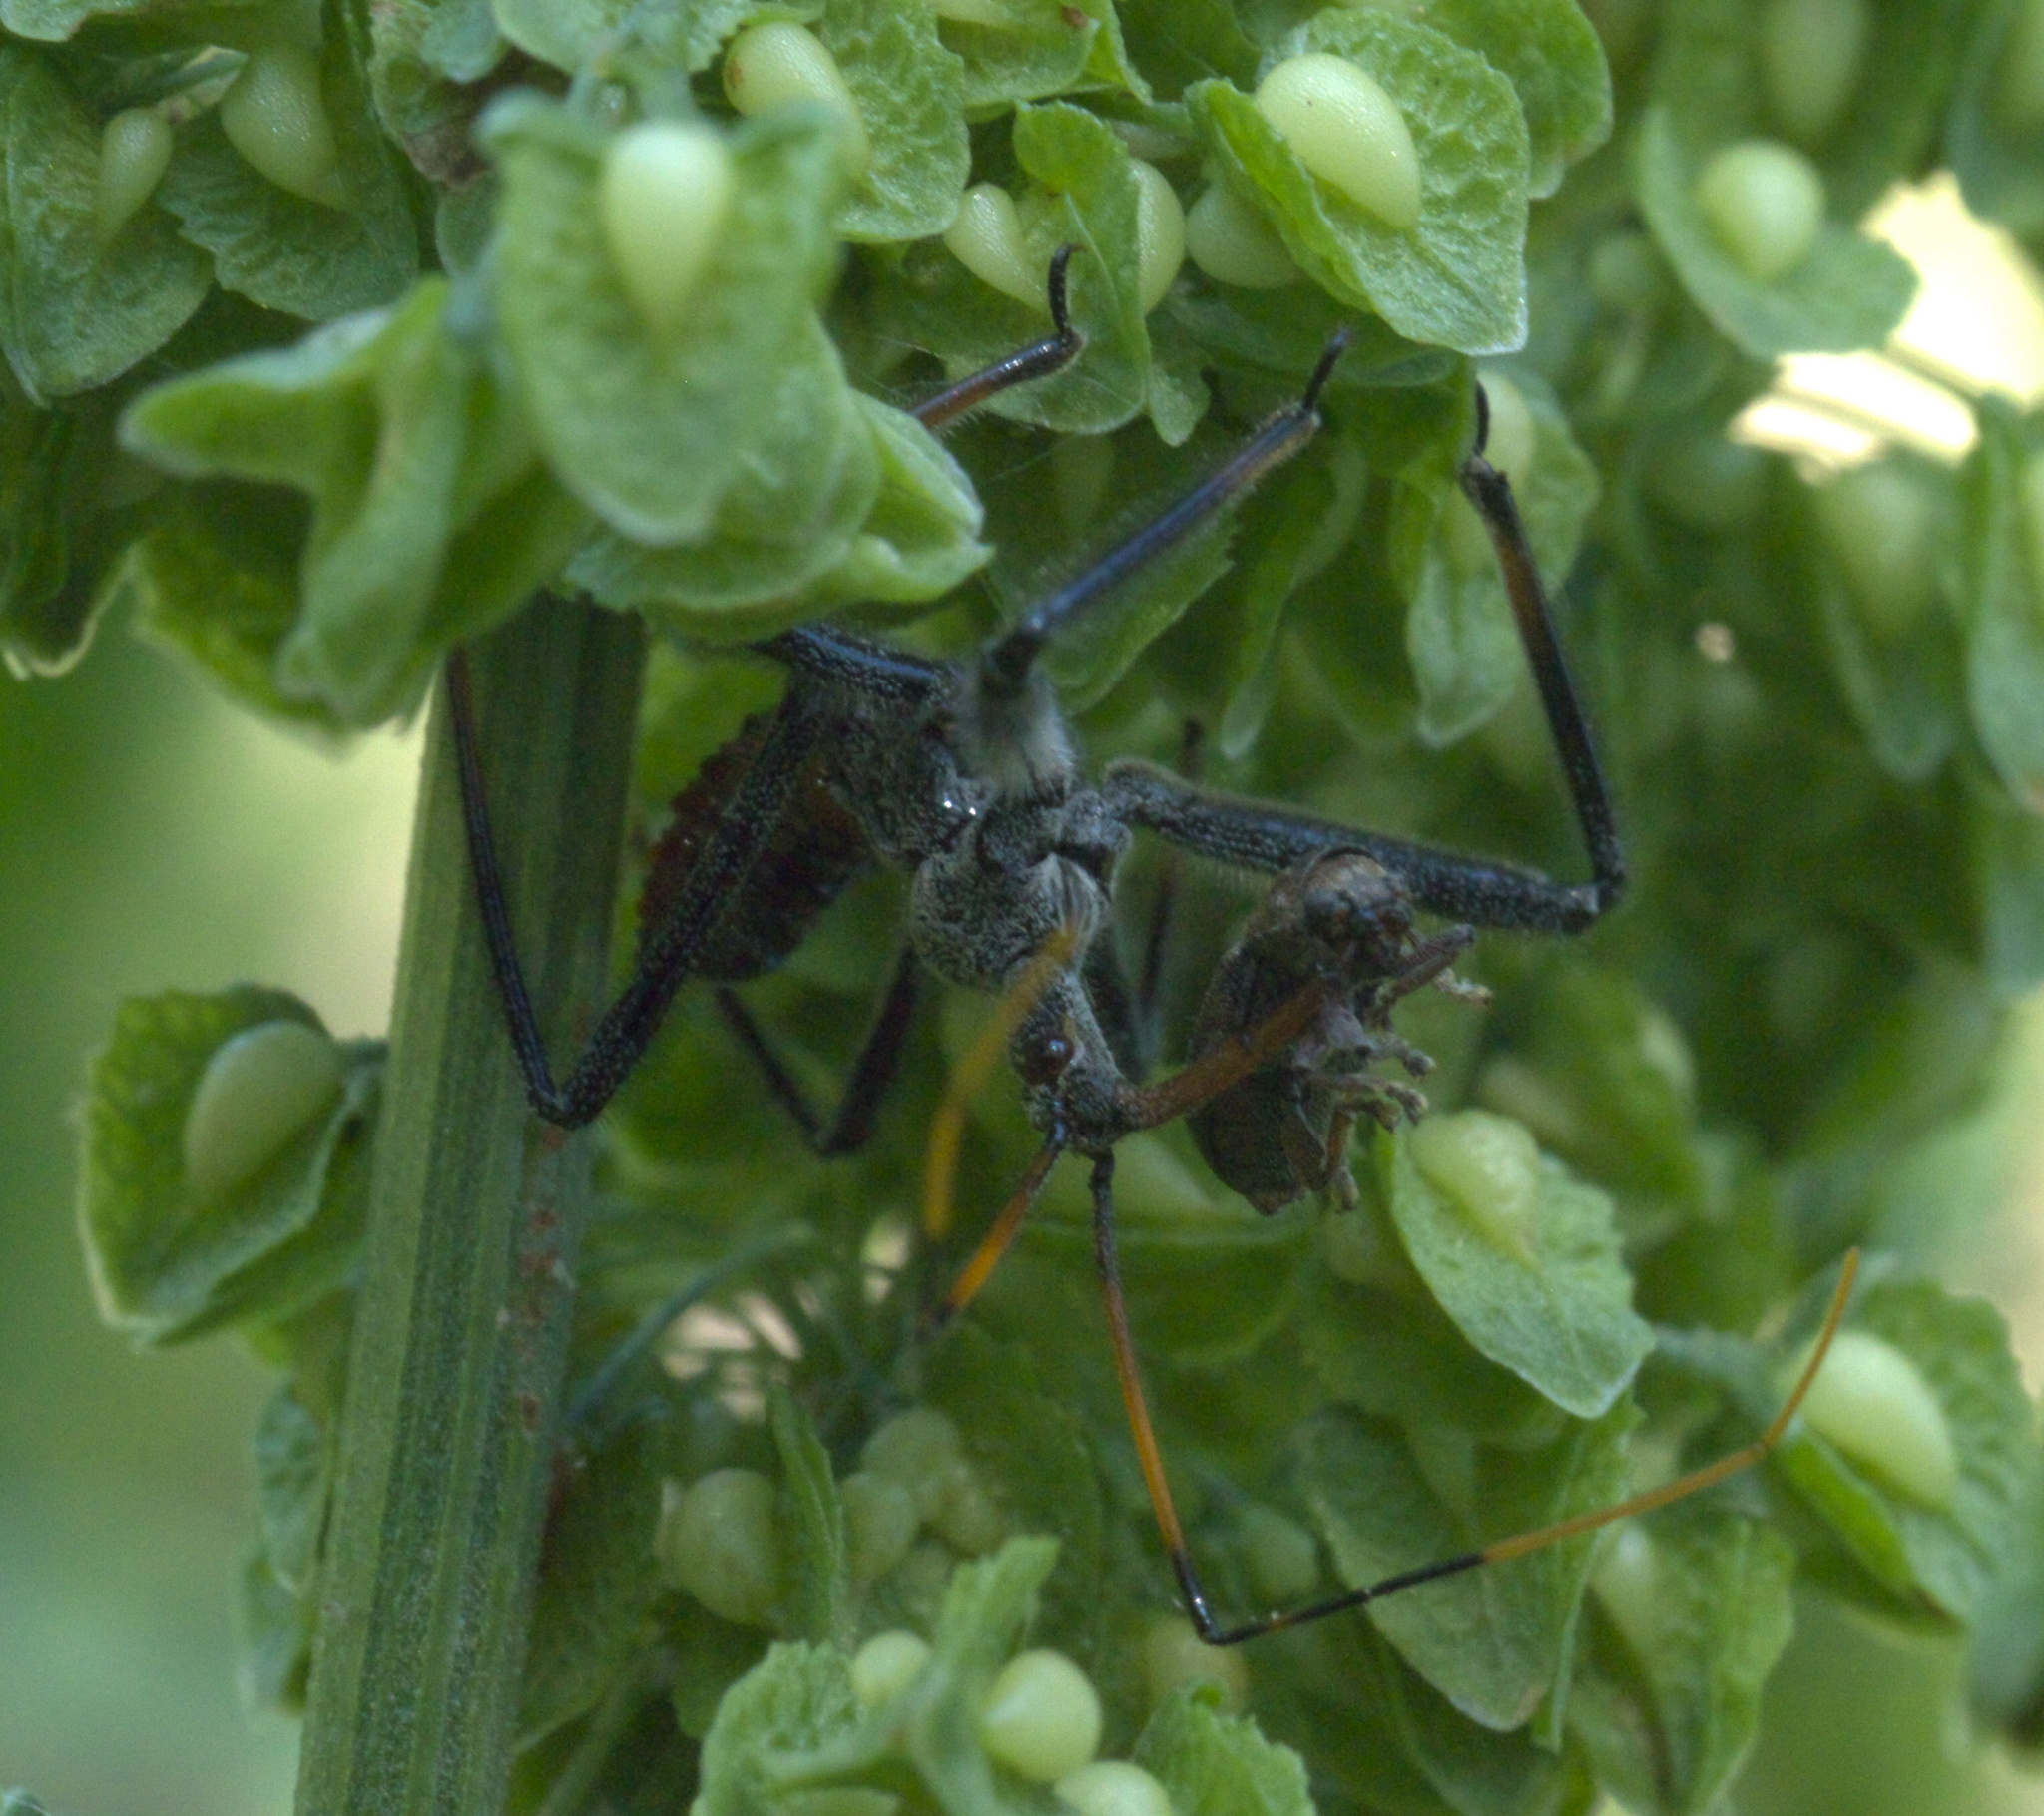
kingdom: Animalia
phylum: Arthropoda
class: Insecta
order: Hemiptera
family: Reduviidae
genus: Arilus
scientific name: Arilus cristatus
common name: North american wheel bug
